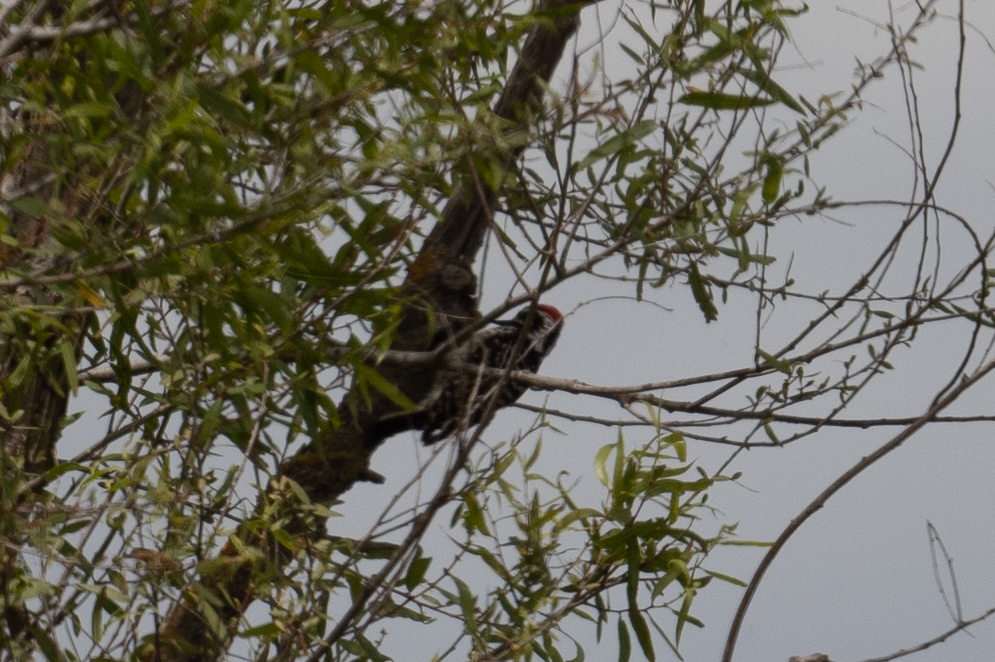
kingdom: Animalia
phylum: Chordata
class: Aves
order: Piciformes
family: Picidae
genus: Dryobates
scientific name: Dryobates nuttallii
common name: Nuttall's woodpecker
